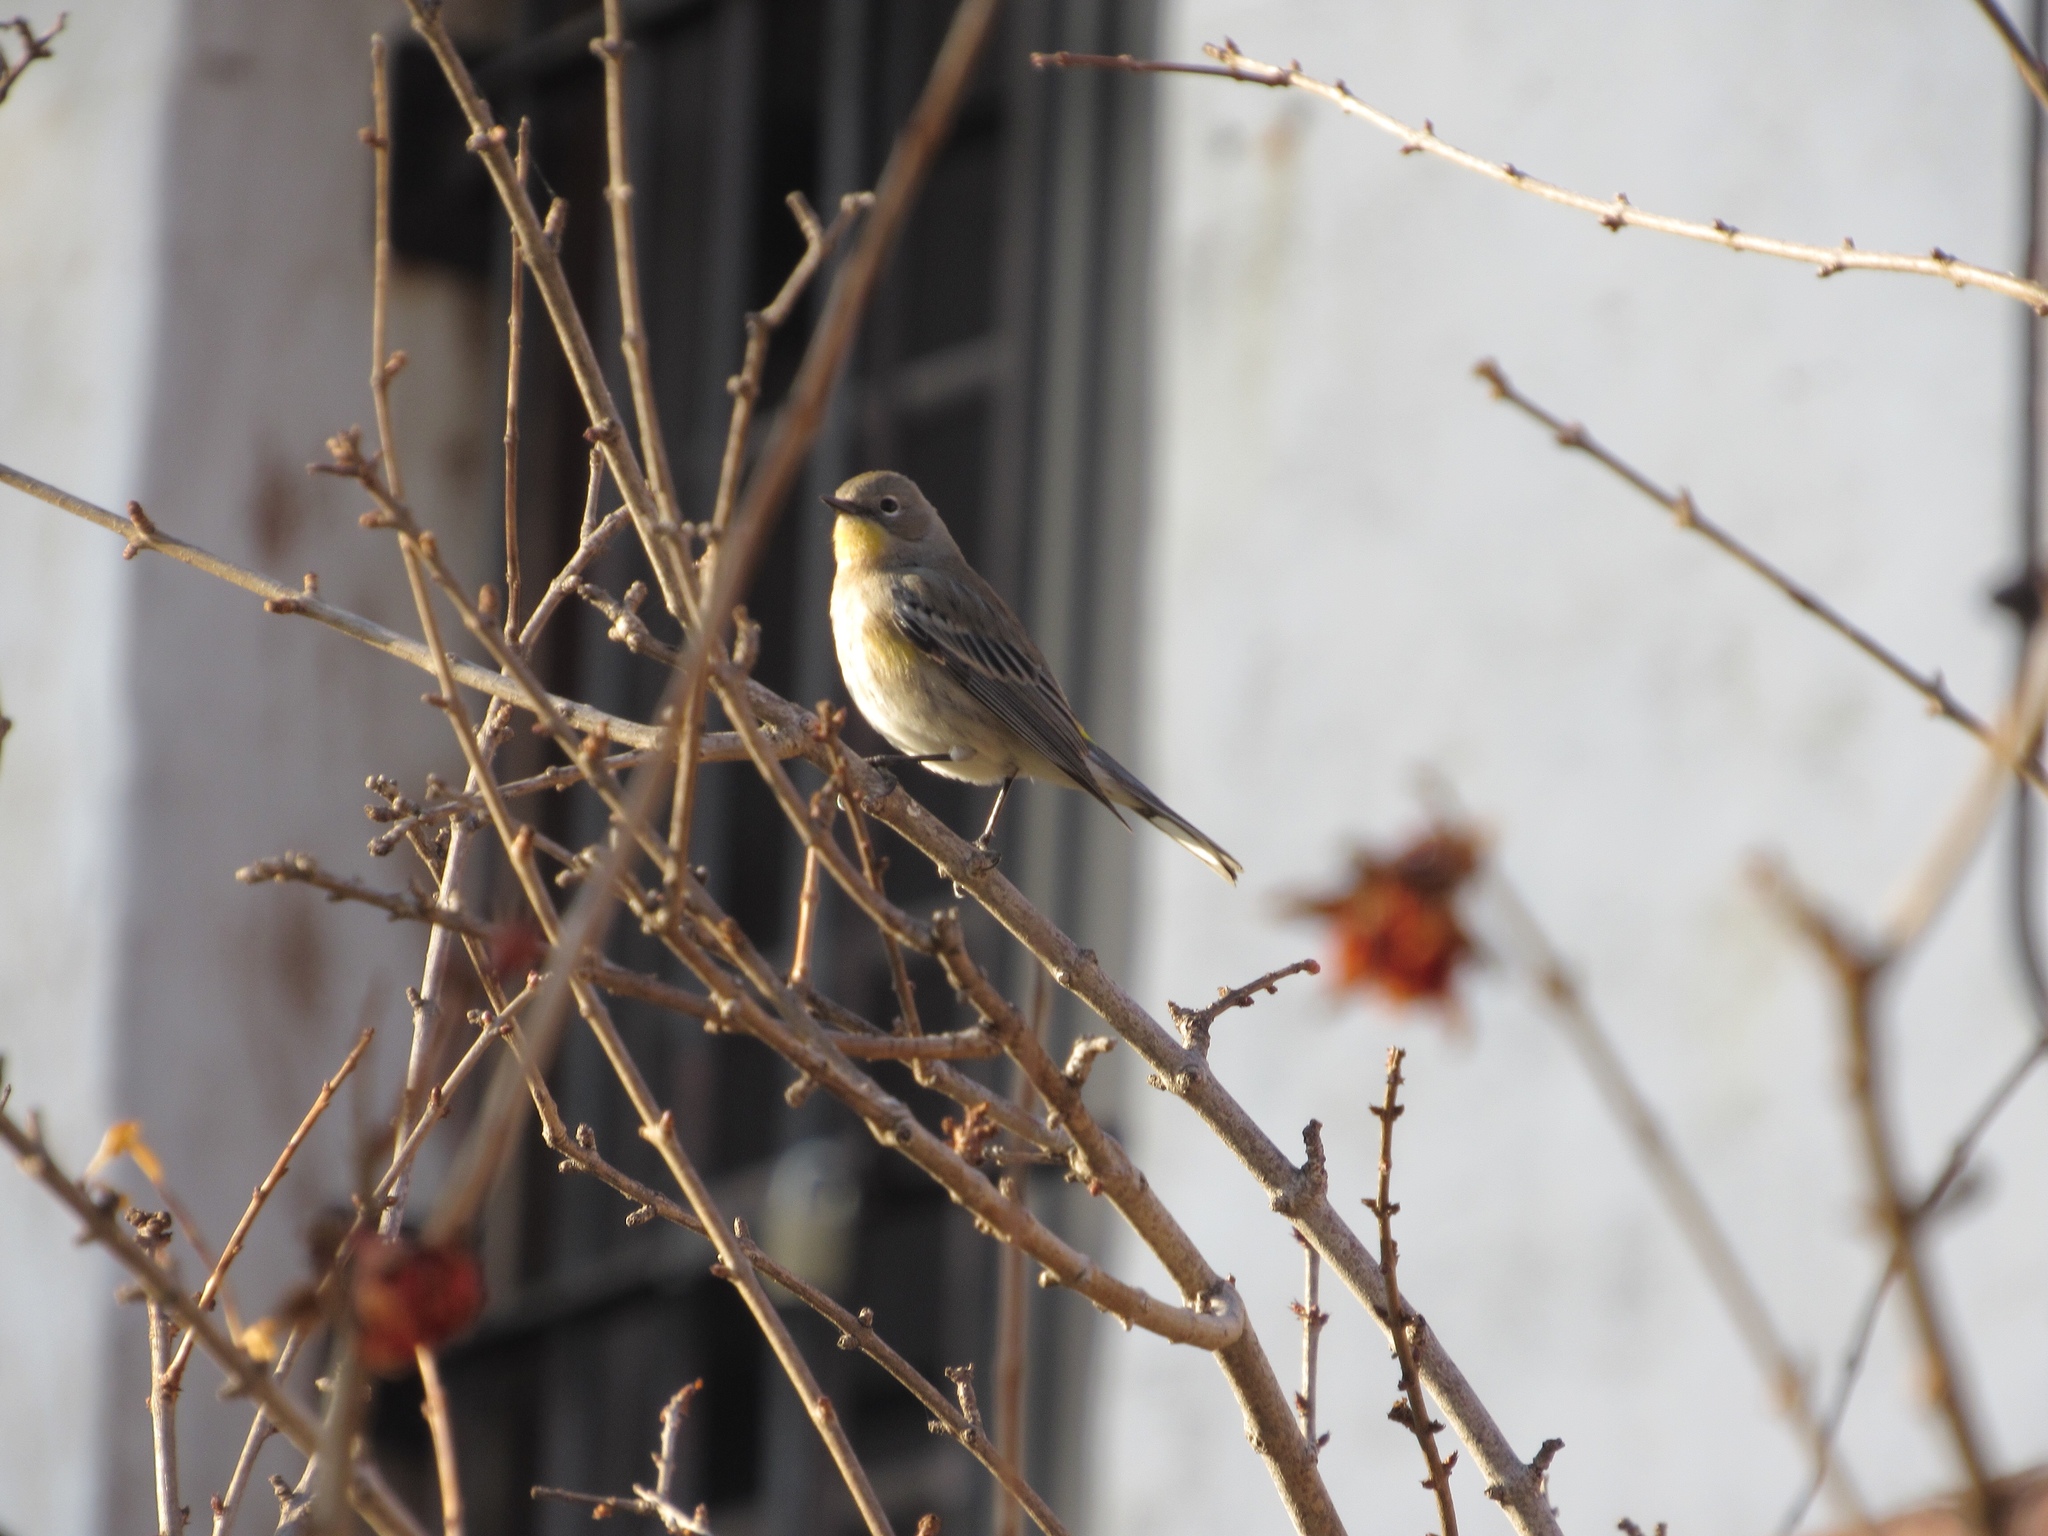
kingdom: Animalia
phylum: Chordata
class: Aves
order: Passeriformes
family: Parulidae
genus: Setophaga
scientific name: Setophaga auduboni
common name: Audubon's warbler
